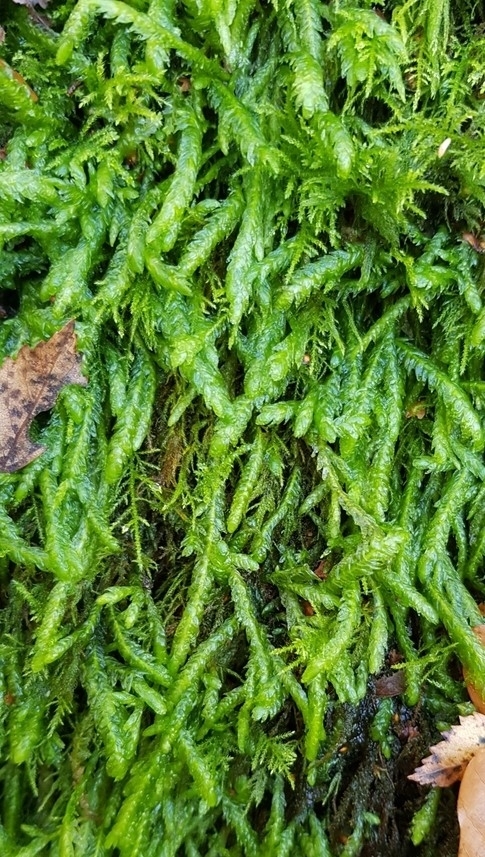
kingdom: Plantae
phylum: Bryophyta
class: Bryopsida
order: Hypnales
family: Plagiotheciaceae
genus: Plagiothecium
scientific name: Plagiothecium undulatum
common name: Waved silk-moss
